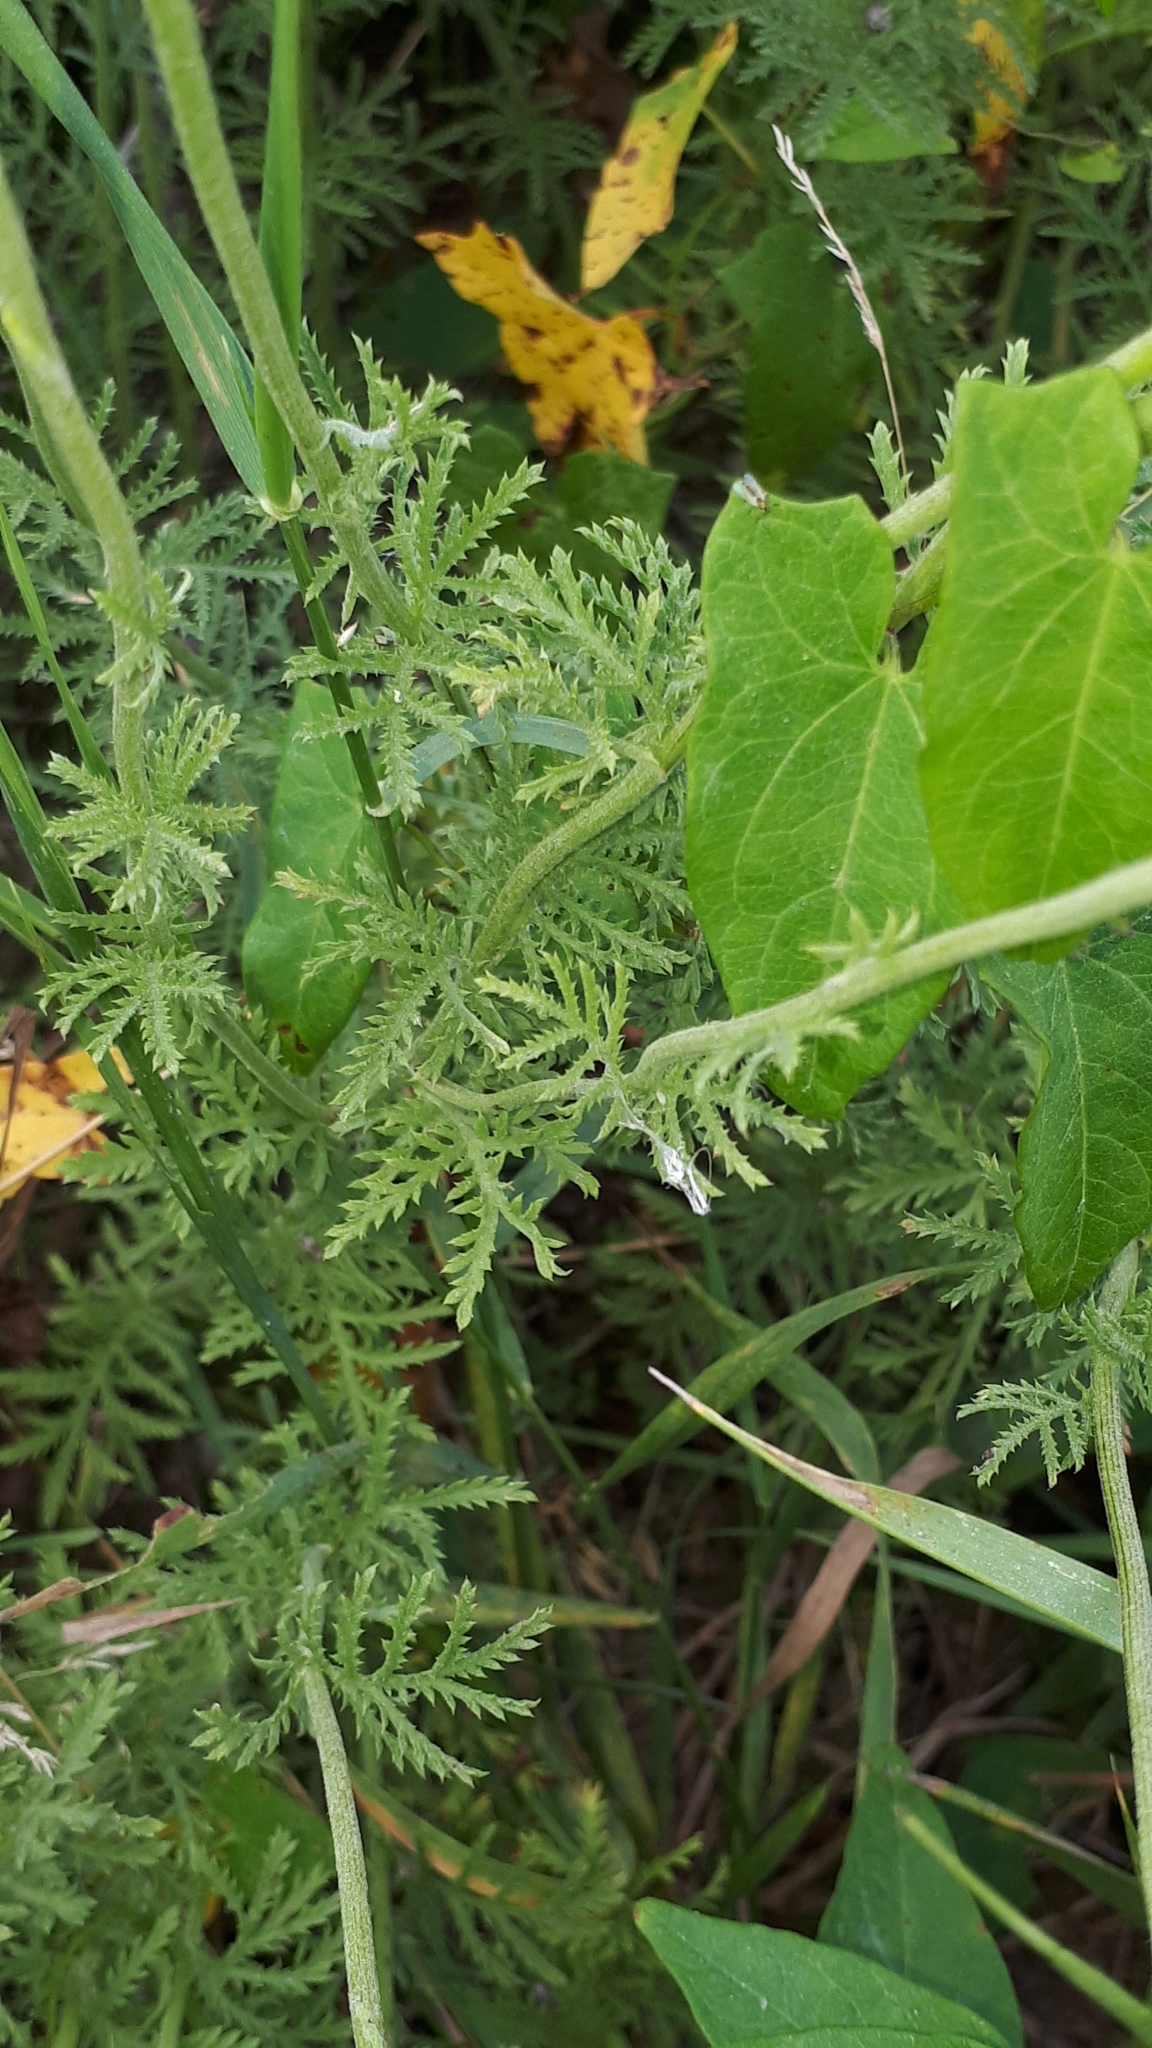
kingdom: Plantae
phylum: Tracheophyta
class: Magnoliopsida
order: Asterales
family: Asteraceae
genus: Cota
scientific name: Cota tinctoria
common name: Golden chamomile
